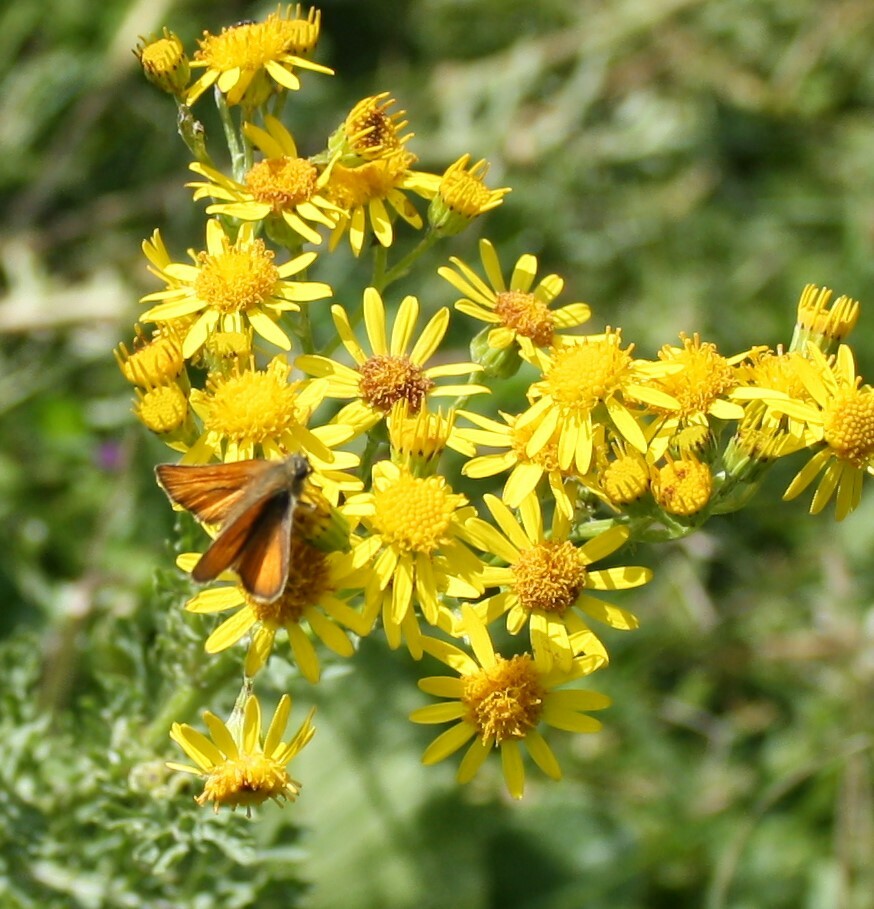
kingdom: Animalia
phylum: Arthropoda
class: Insecta
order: Lepidoptera
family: Hesperiidae
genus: Thymelicus
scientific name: Thymelicus sylvestris
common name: Small skipper
